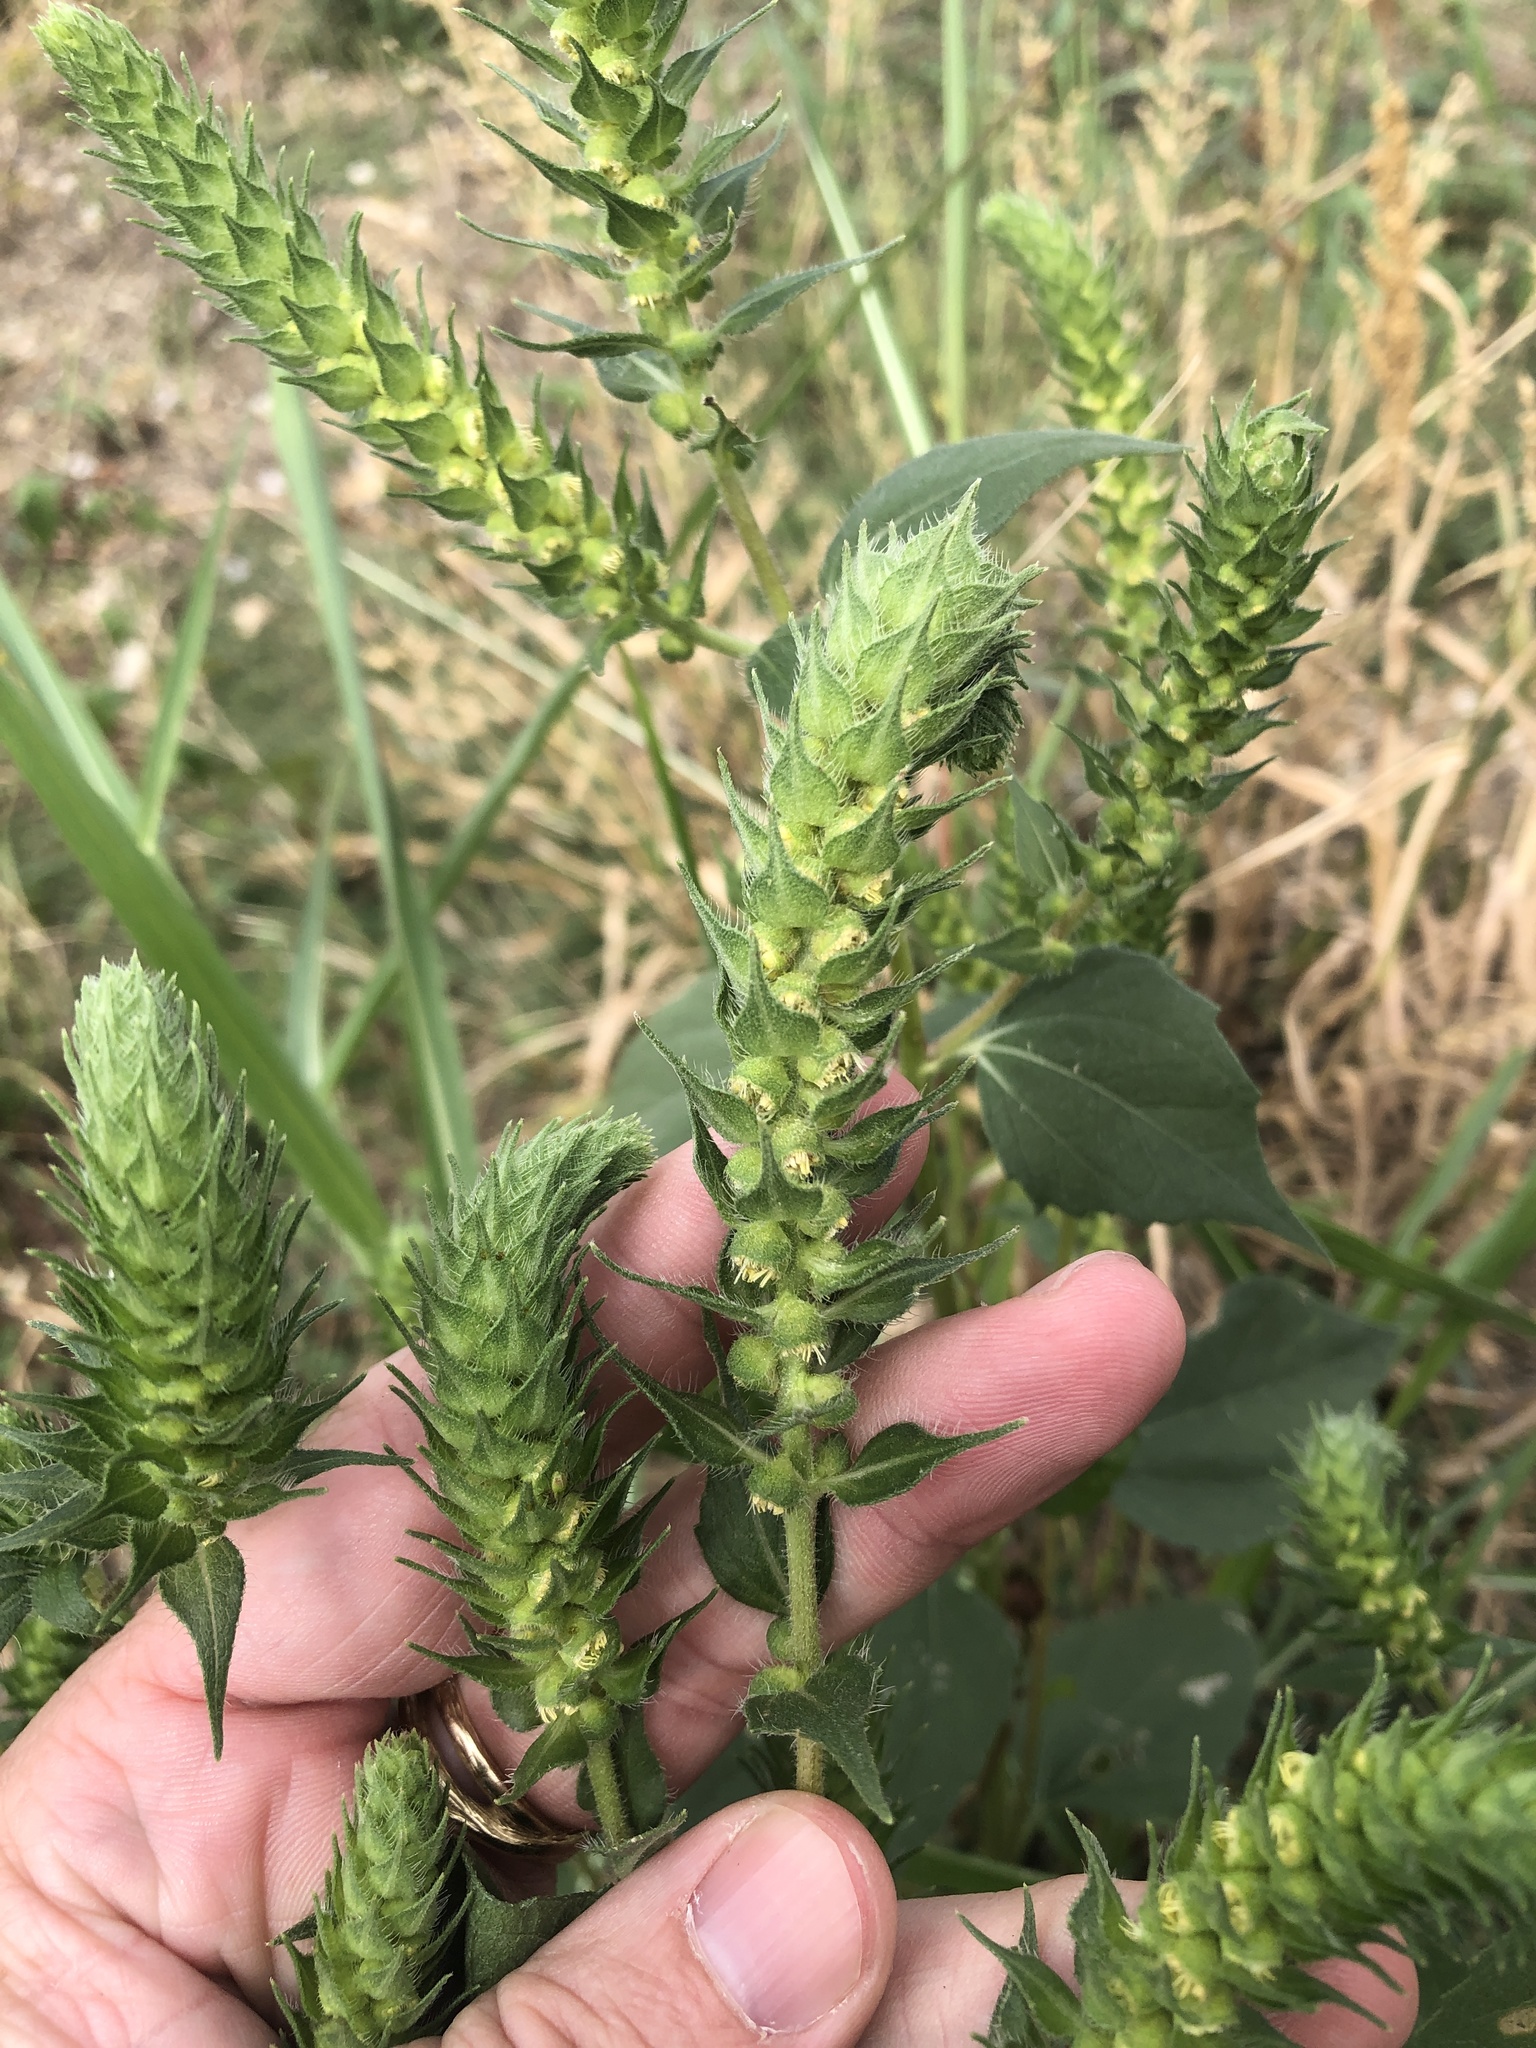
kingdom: Plantae
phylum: Tracheophyta
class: Magnoliopsida
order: Asterales
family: Asteraceae
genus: Iva
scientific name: Iva annua
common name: Marsh-elder
